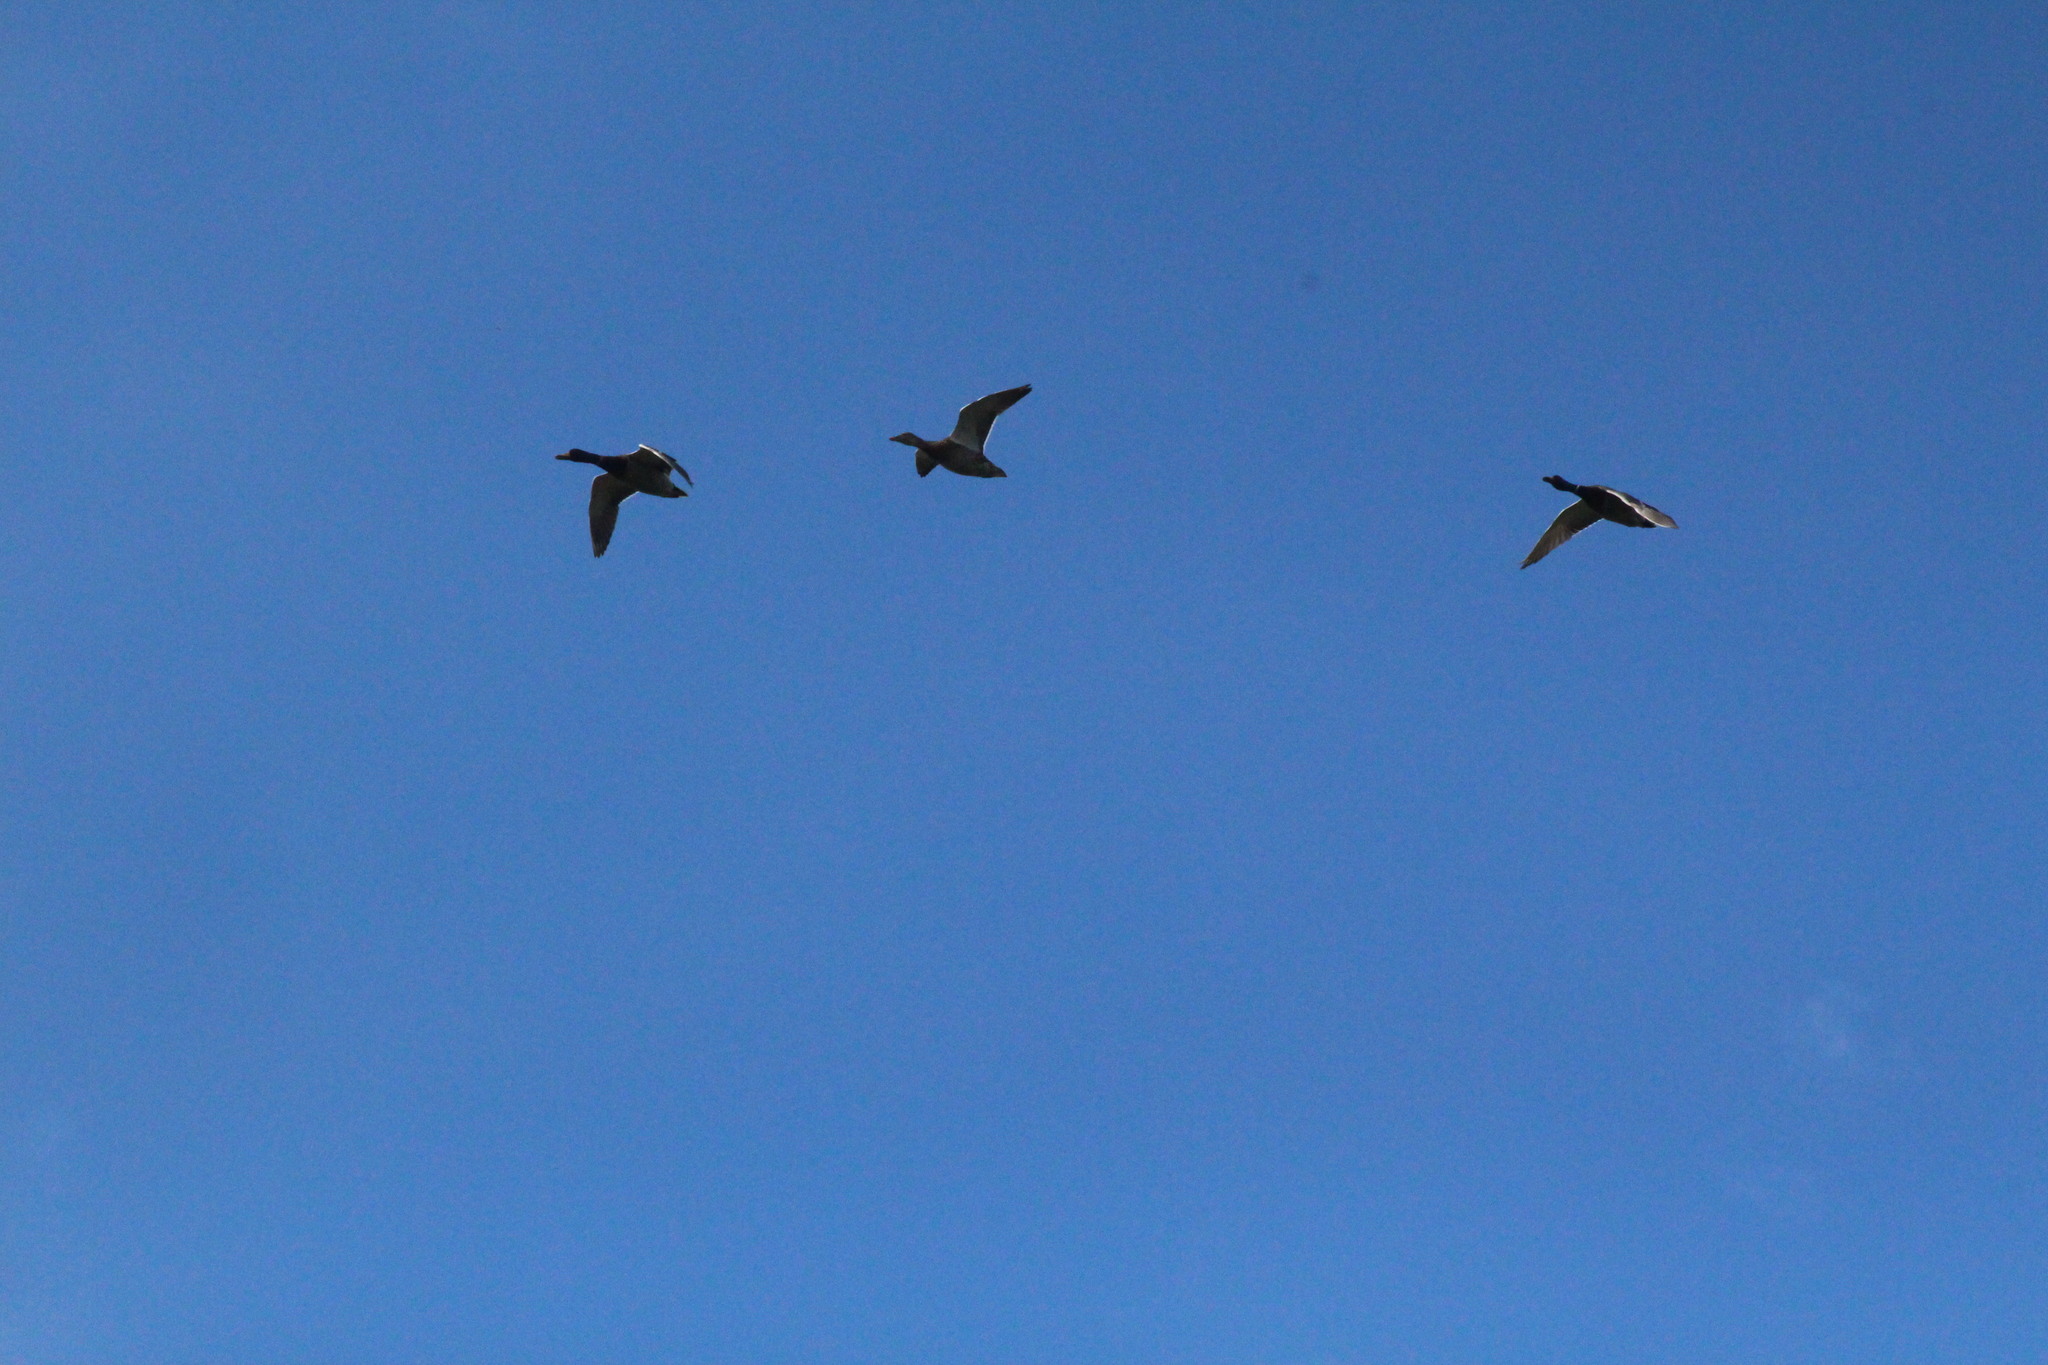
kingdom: Animalia
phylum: Chordata
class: Aves
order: Anseriformes
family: Anatidae
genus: Anas
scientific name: Anas platyrhynchos
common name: Mallard
